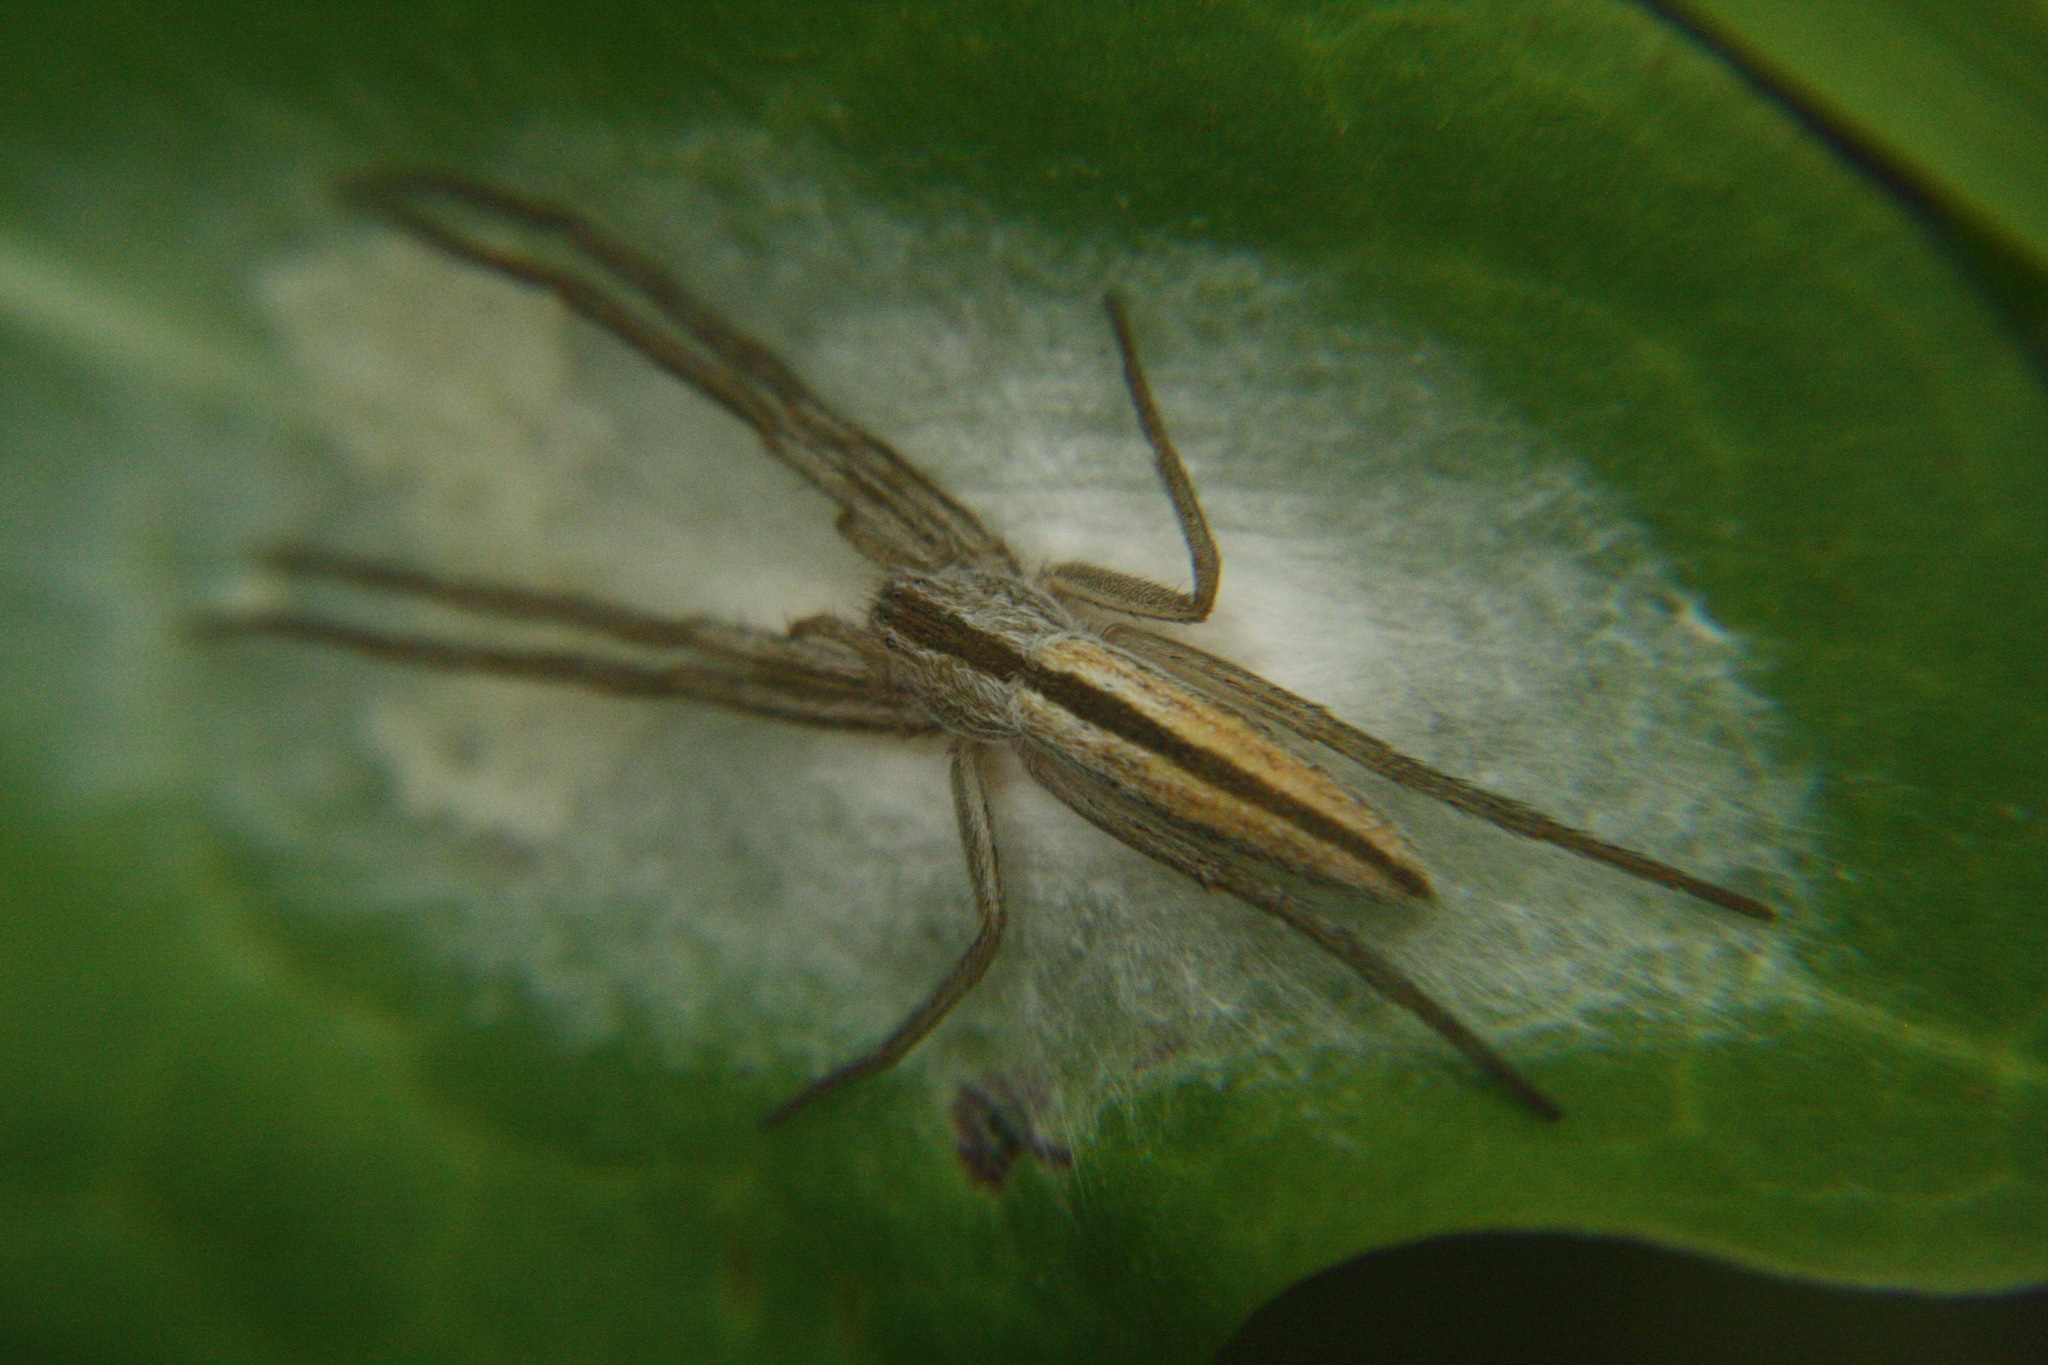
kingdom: Animalia
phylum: Arthropoda
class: Arachnida
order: Araneae
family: Philodromidae
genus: Tibellus
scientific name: Tibellus oblongus
